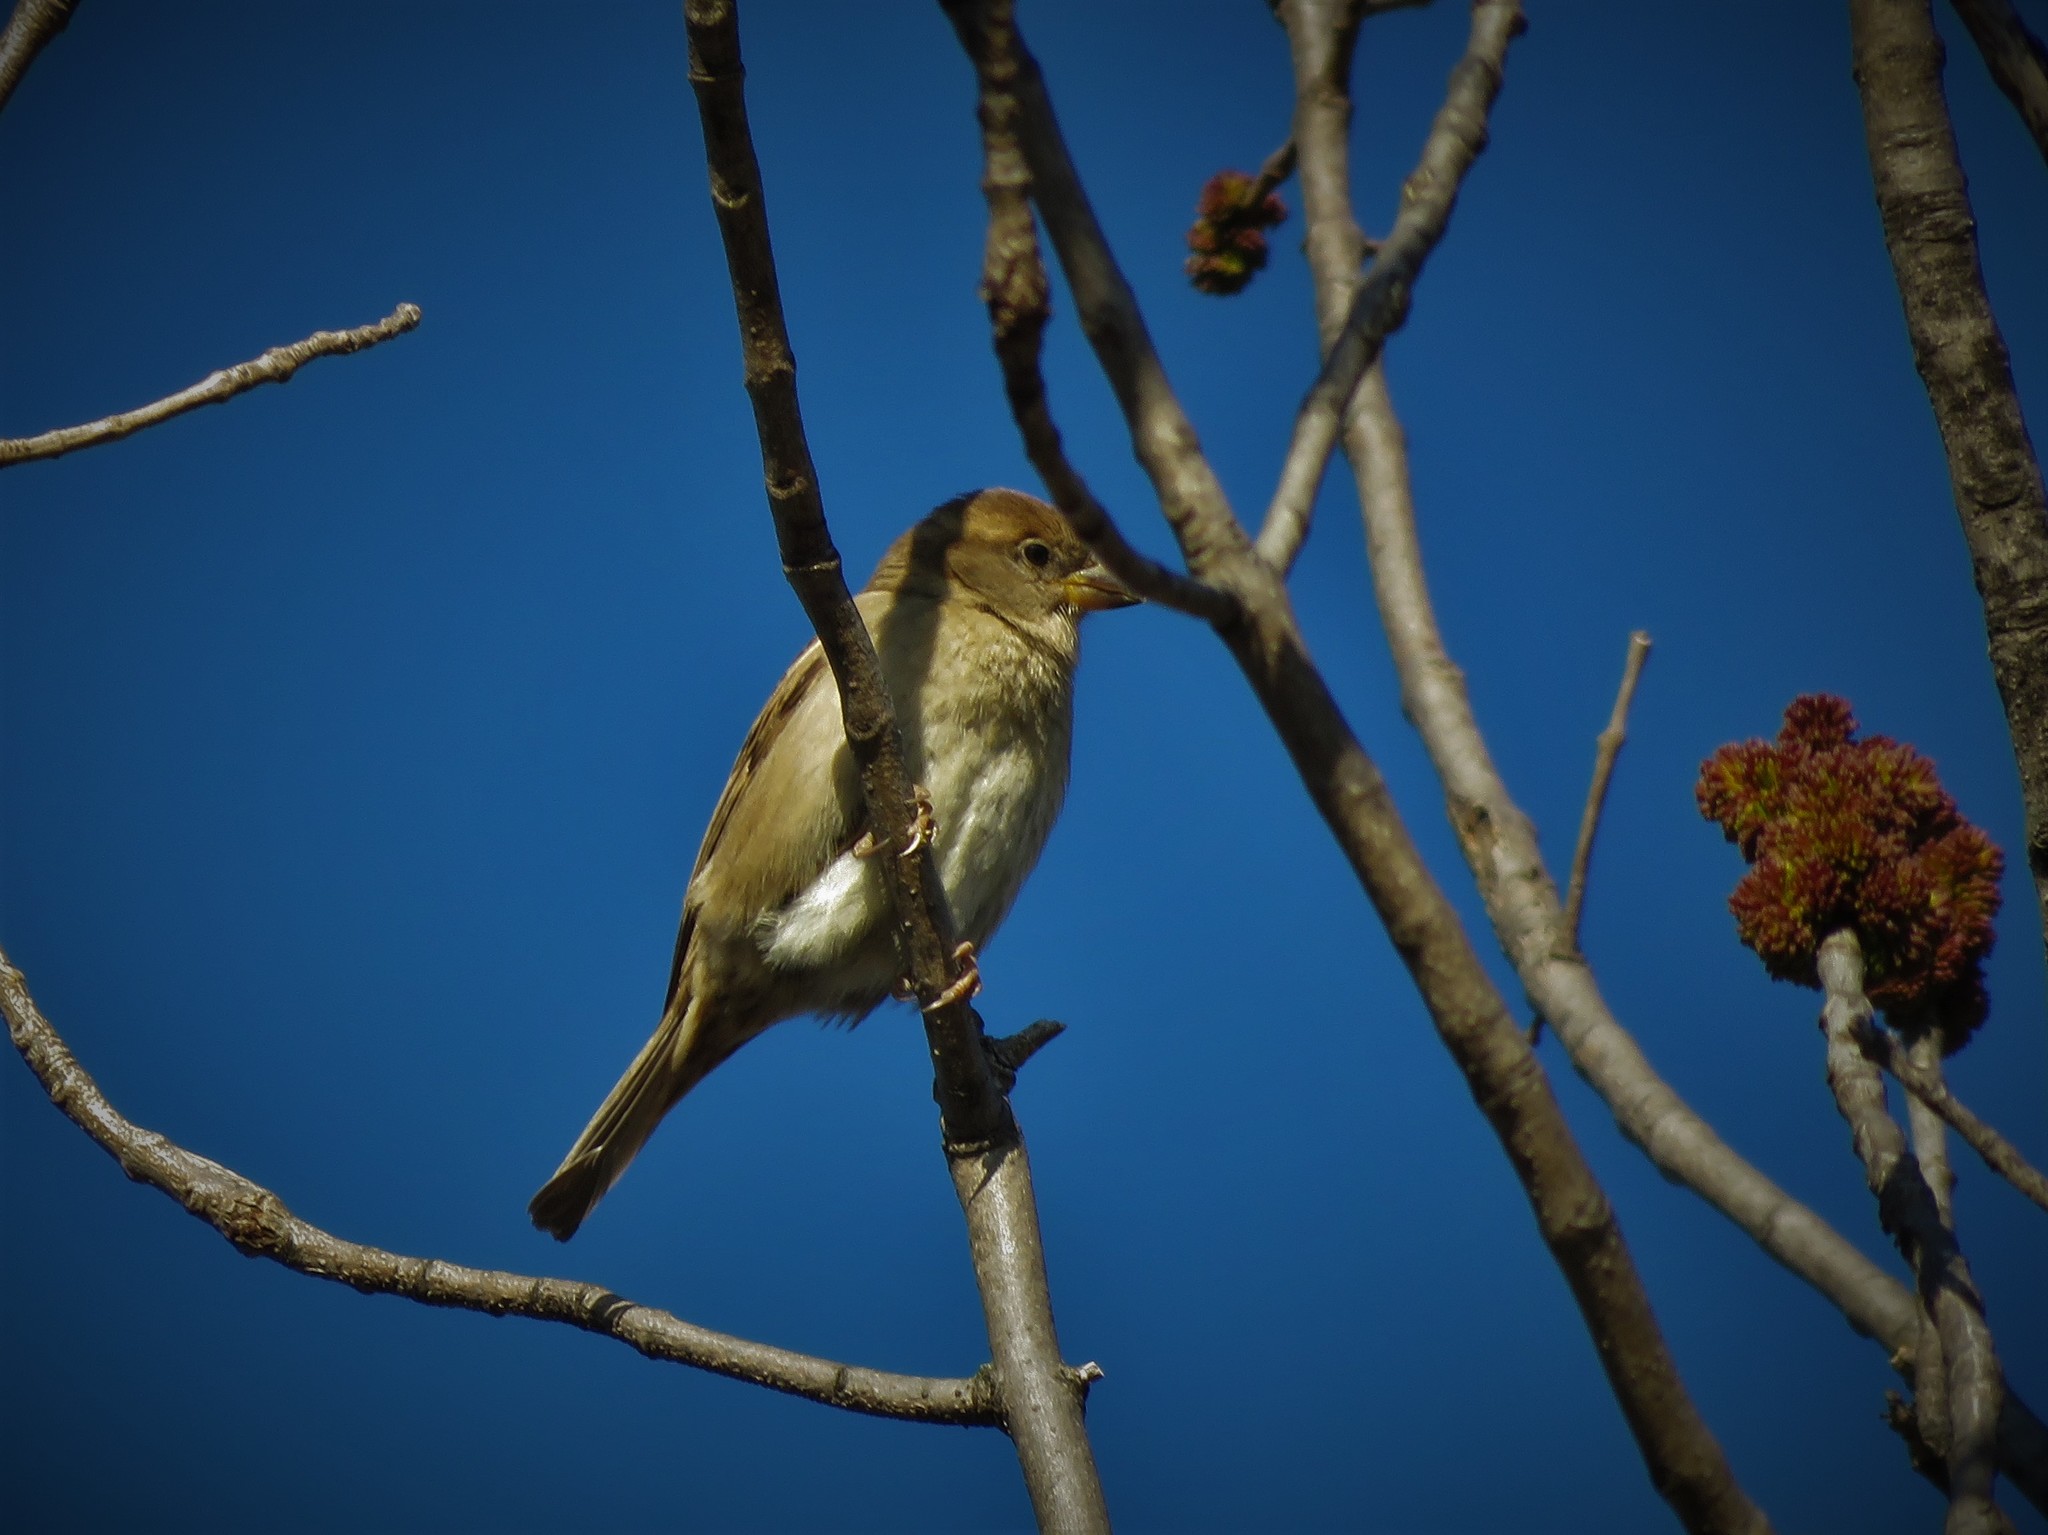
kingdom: Animalia
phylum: Chordata
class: Aves
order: Passeriformes
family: Passeridae
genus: Passer
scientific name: Passer domesticus
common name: House sparrow
